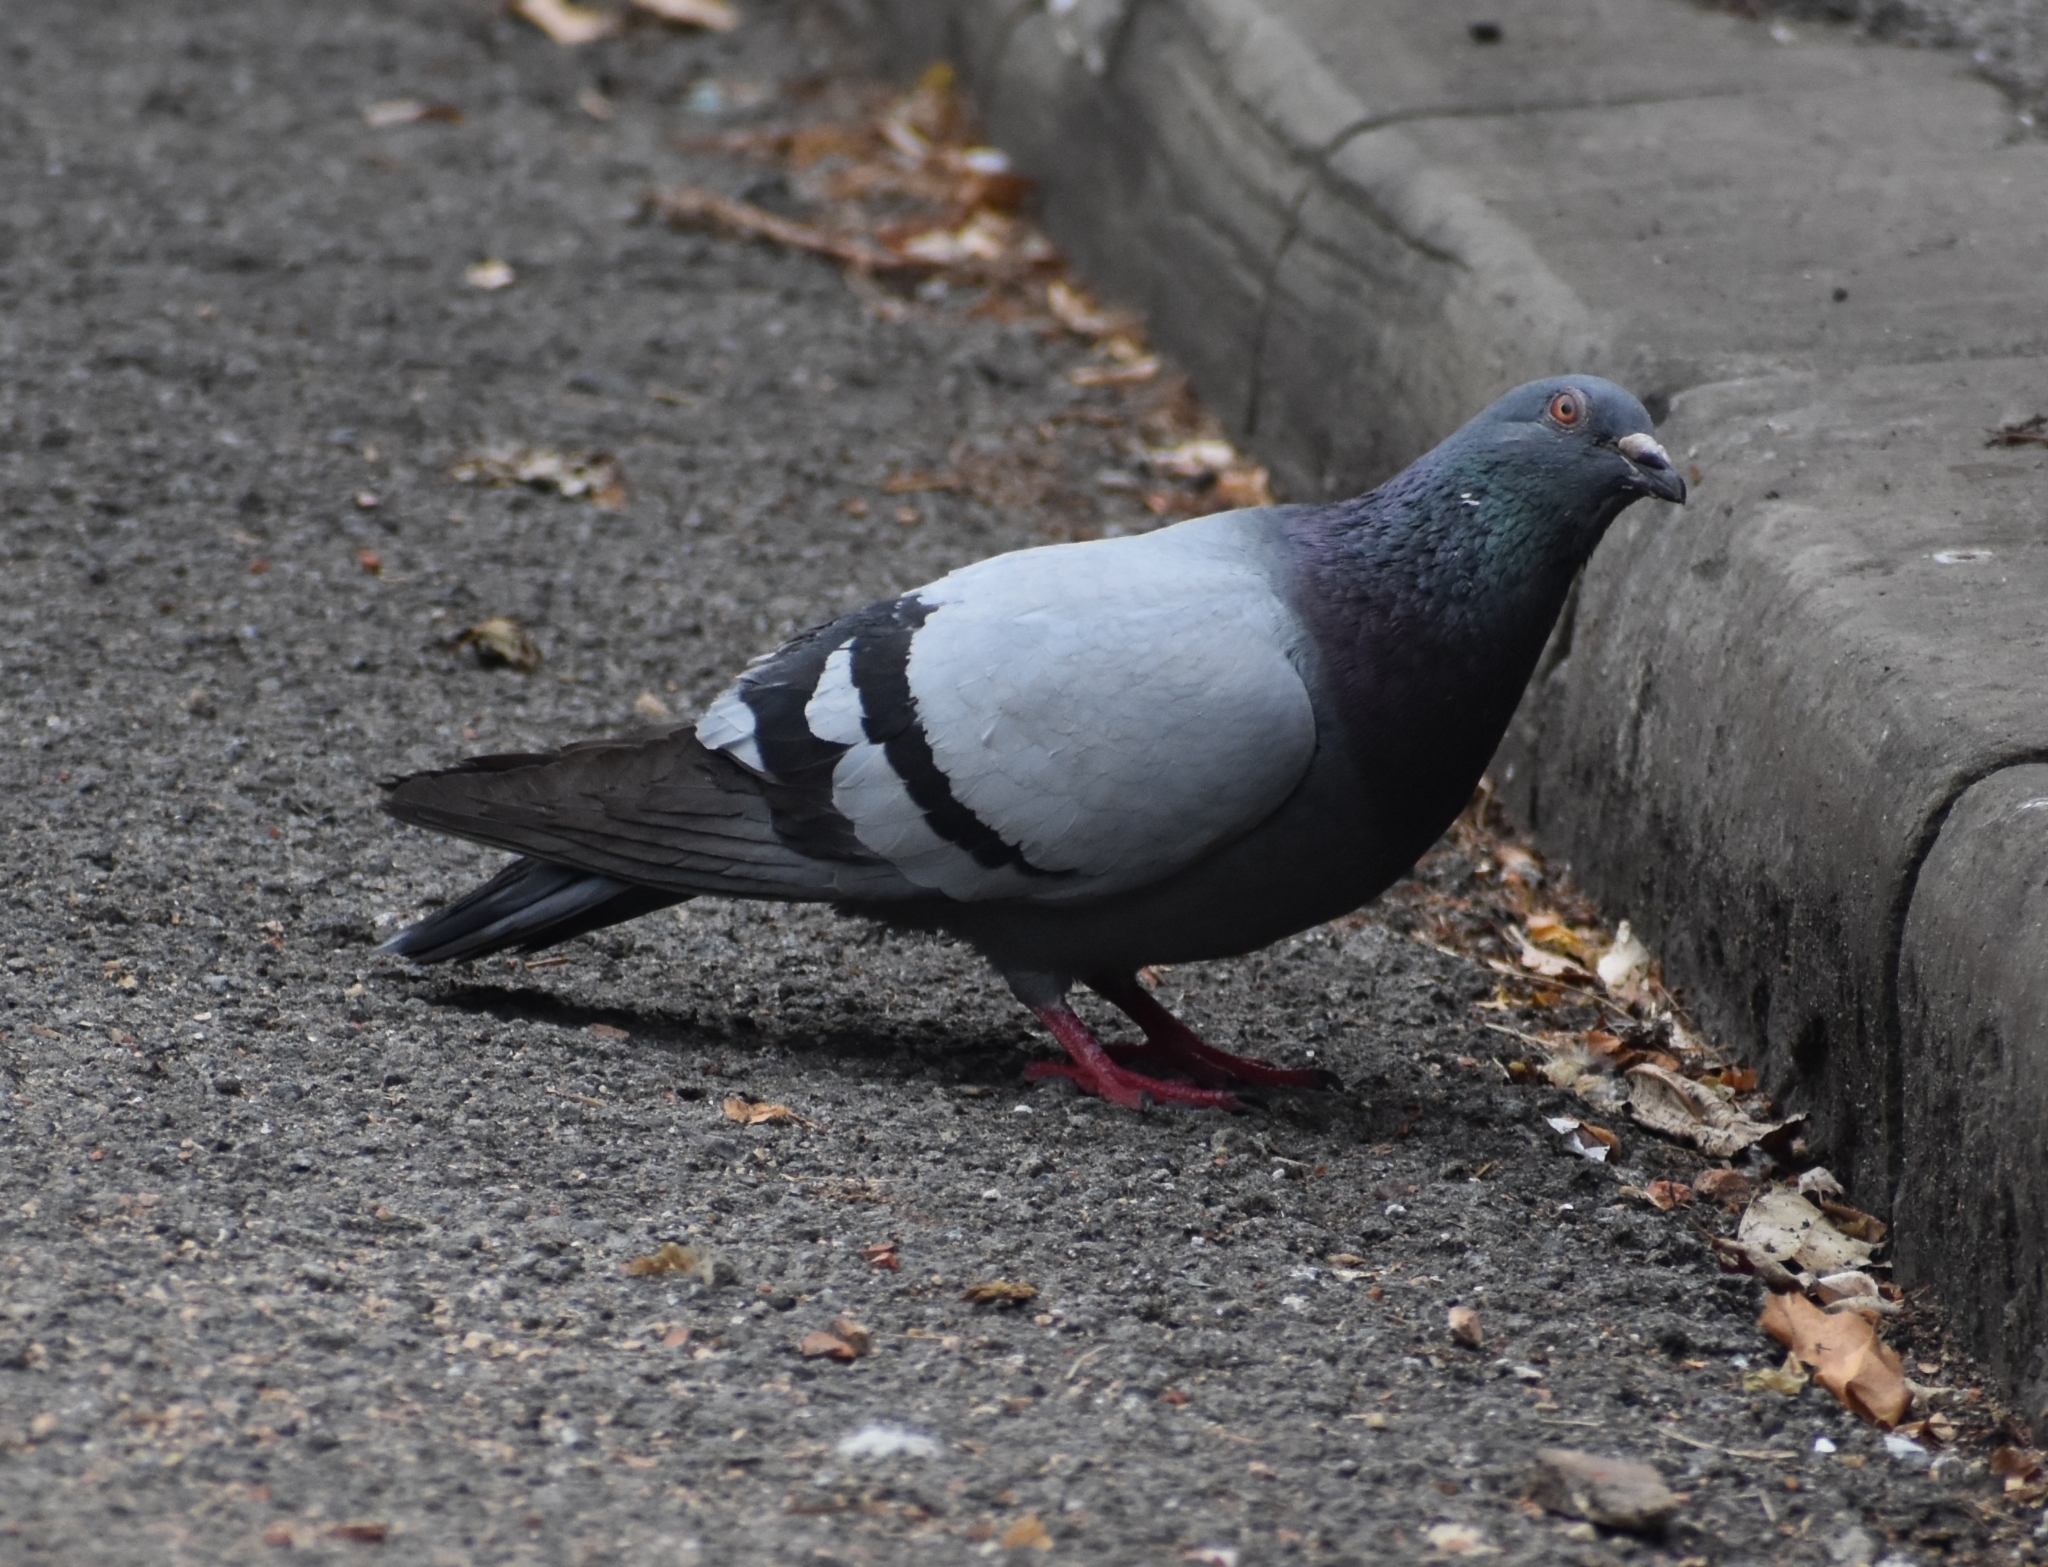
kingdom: Animalia
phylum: Chordata
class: Aves
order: Columbiformes
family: Columbidae
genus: Columba
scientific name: Columba livia
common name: Rock pigeon
